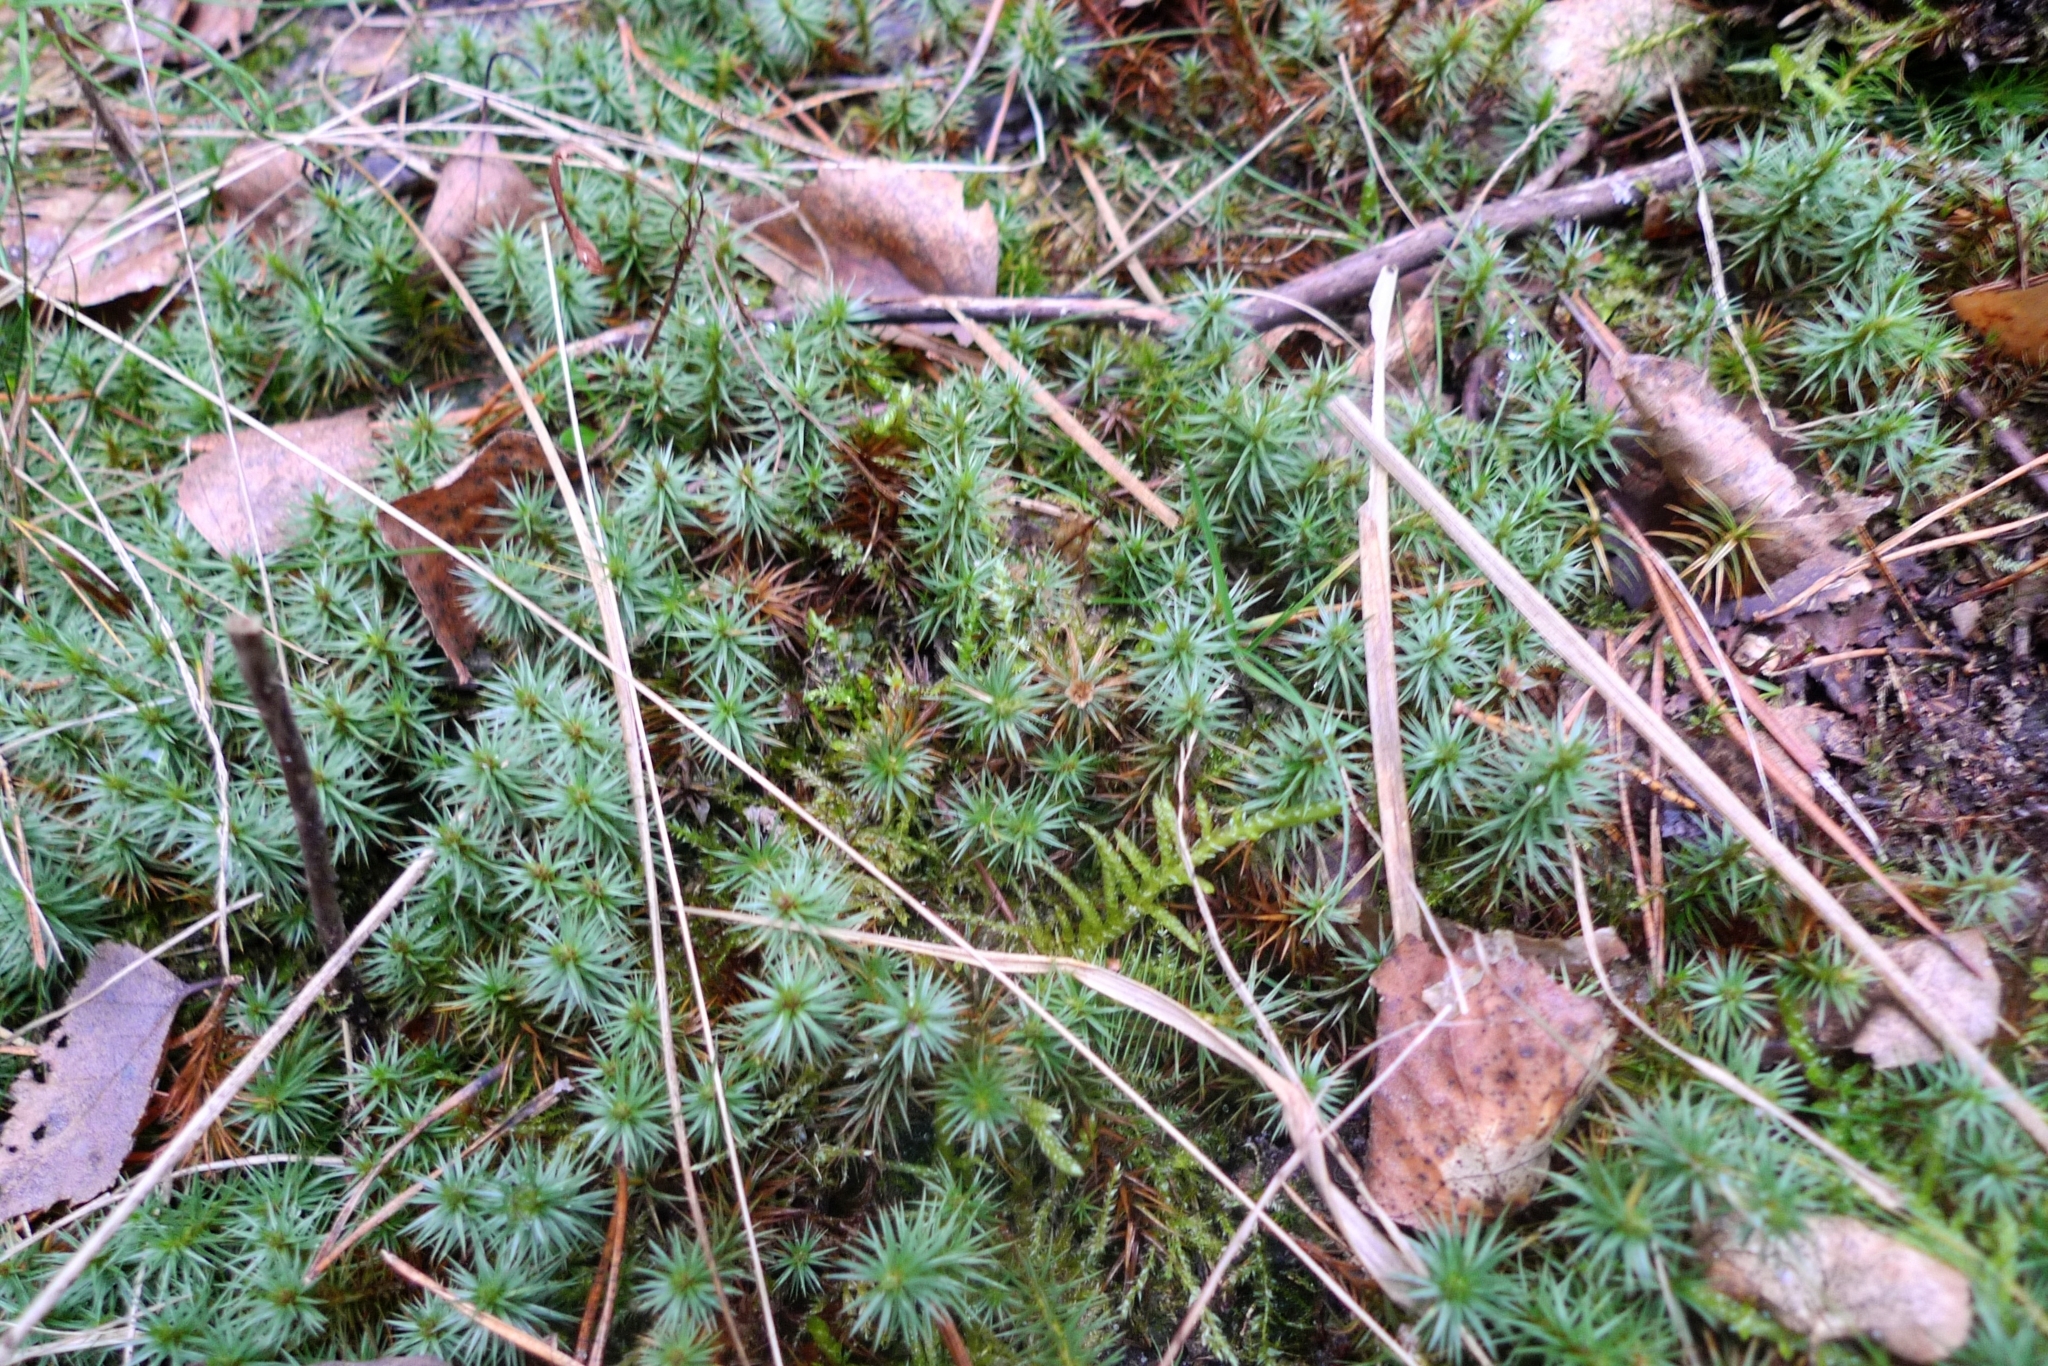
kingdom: Plantae
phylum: Bryophyta
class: Polytrichopsida
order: Polytrichales
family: Polytrichaceae
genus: Polytrichum
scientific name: Polytrichum juniperinum
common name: Juniper haircap moss
